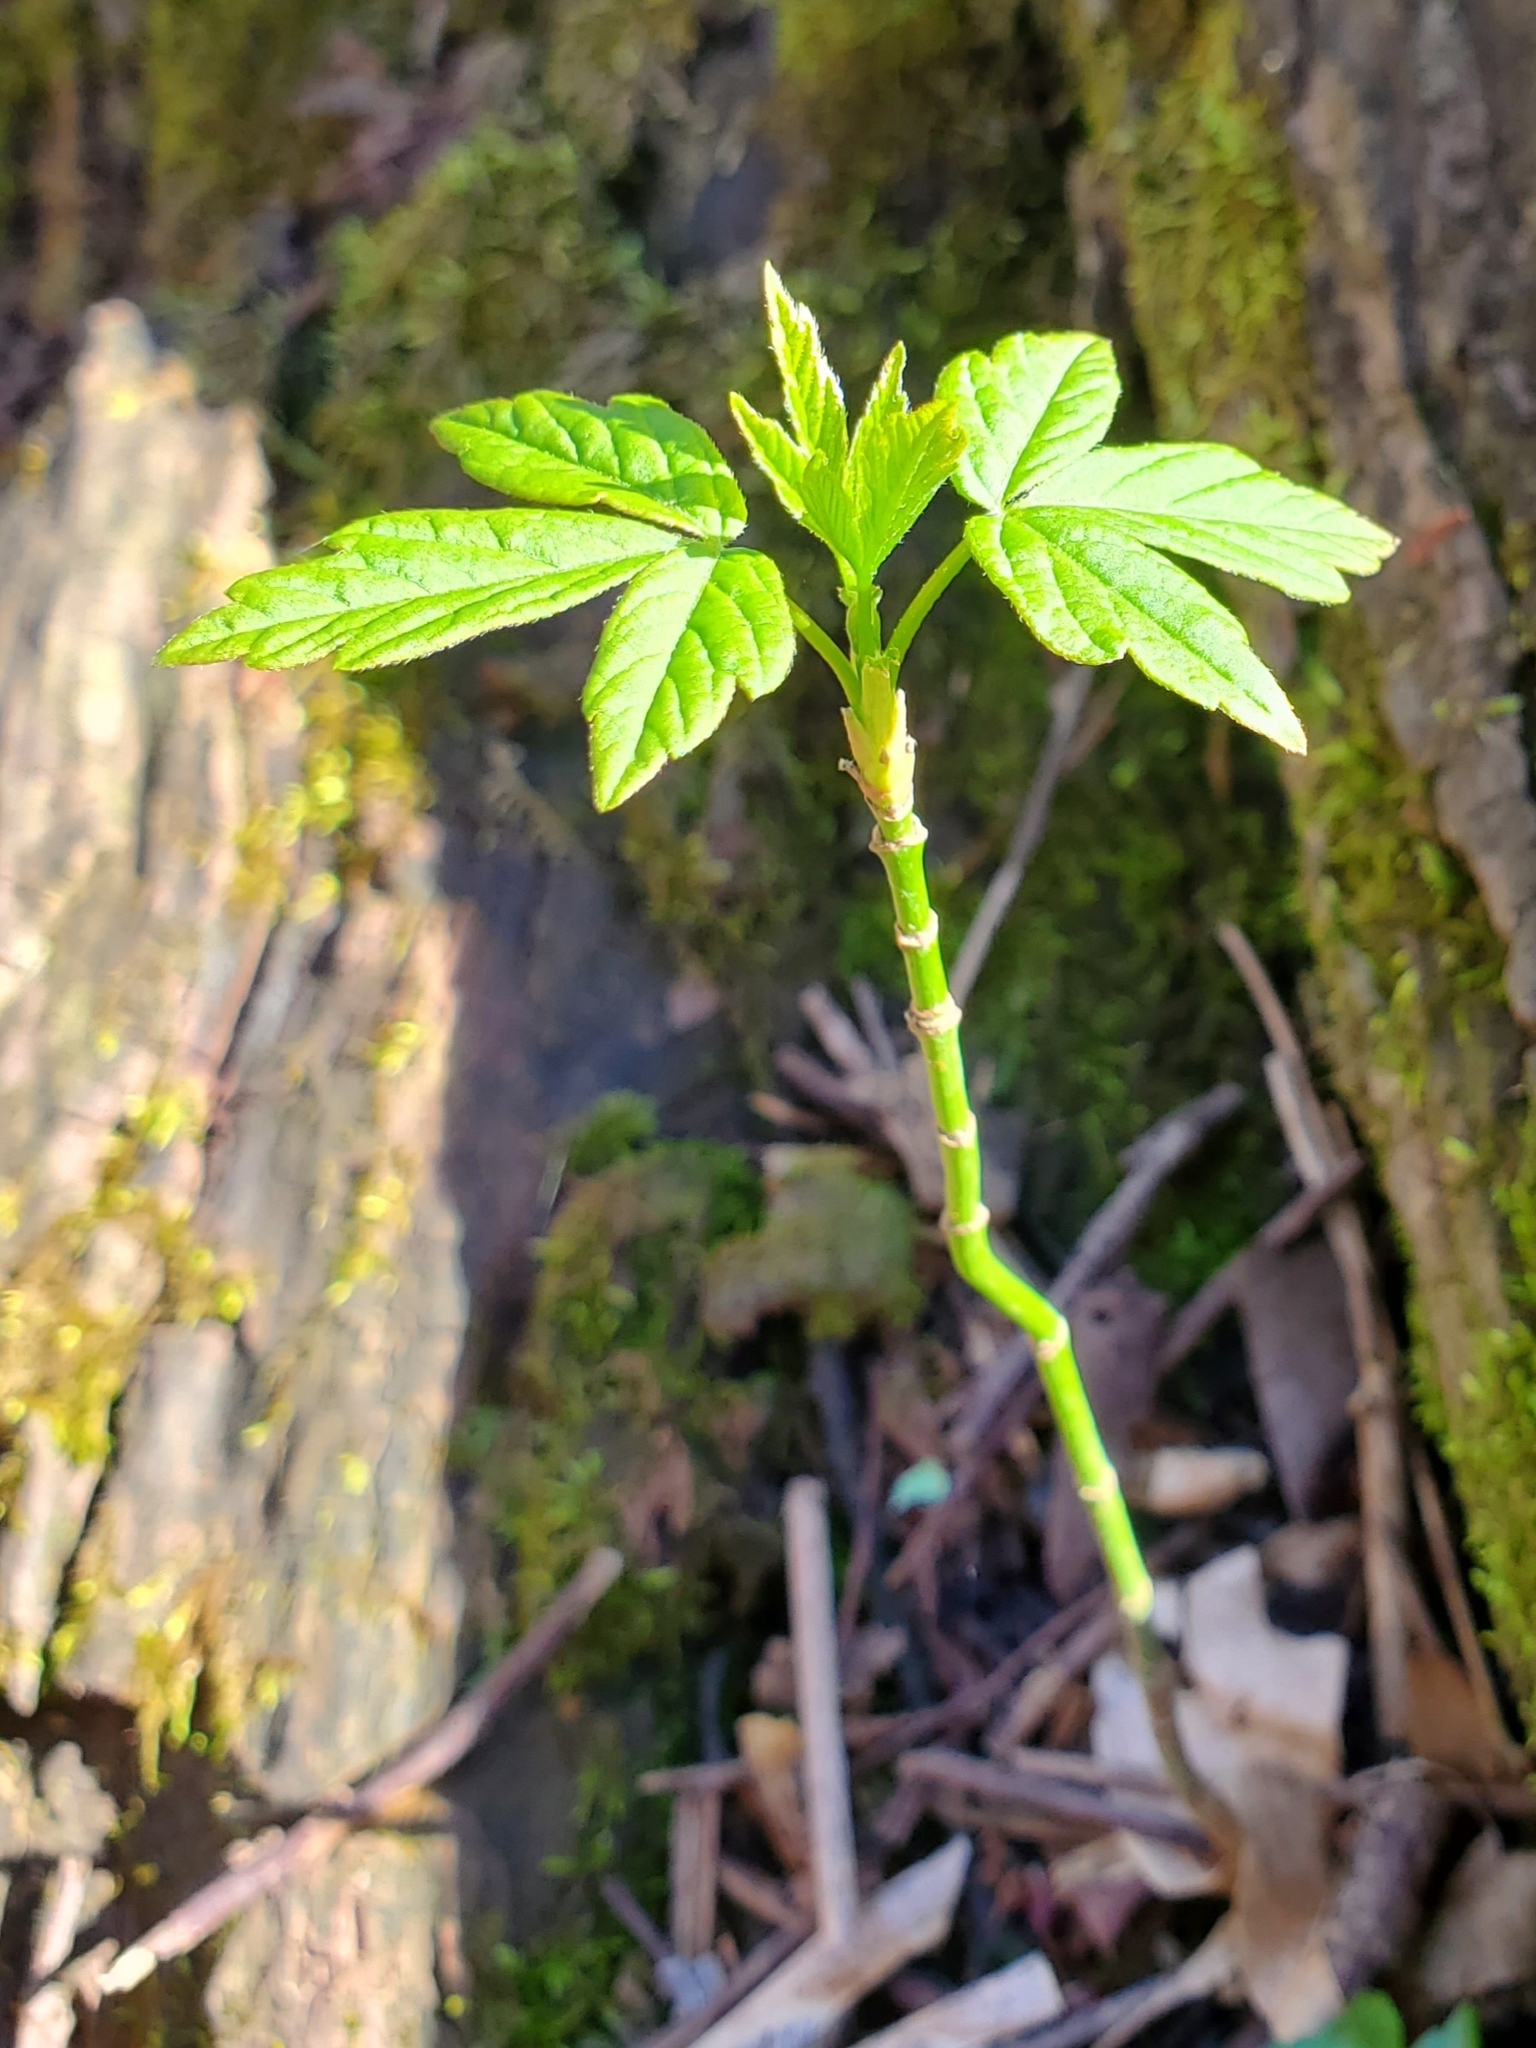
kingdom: Plantae
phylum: Tracheophyta
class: Magnoliopsida
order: Sapindales
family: Sapindaceae
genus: Acer
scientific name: Acer negundo
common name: Ashleaf maple
